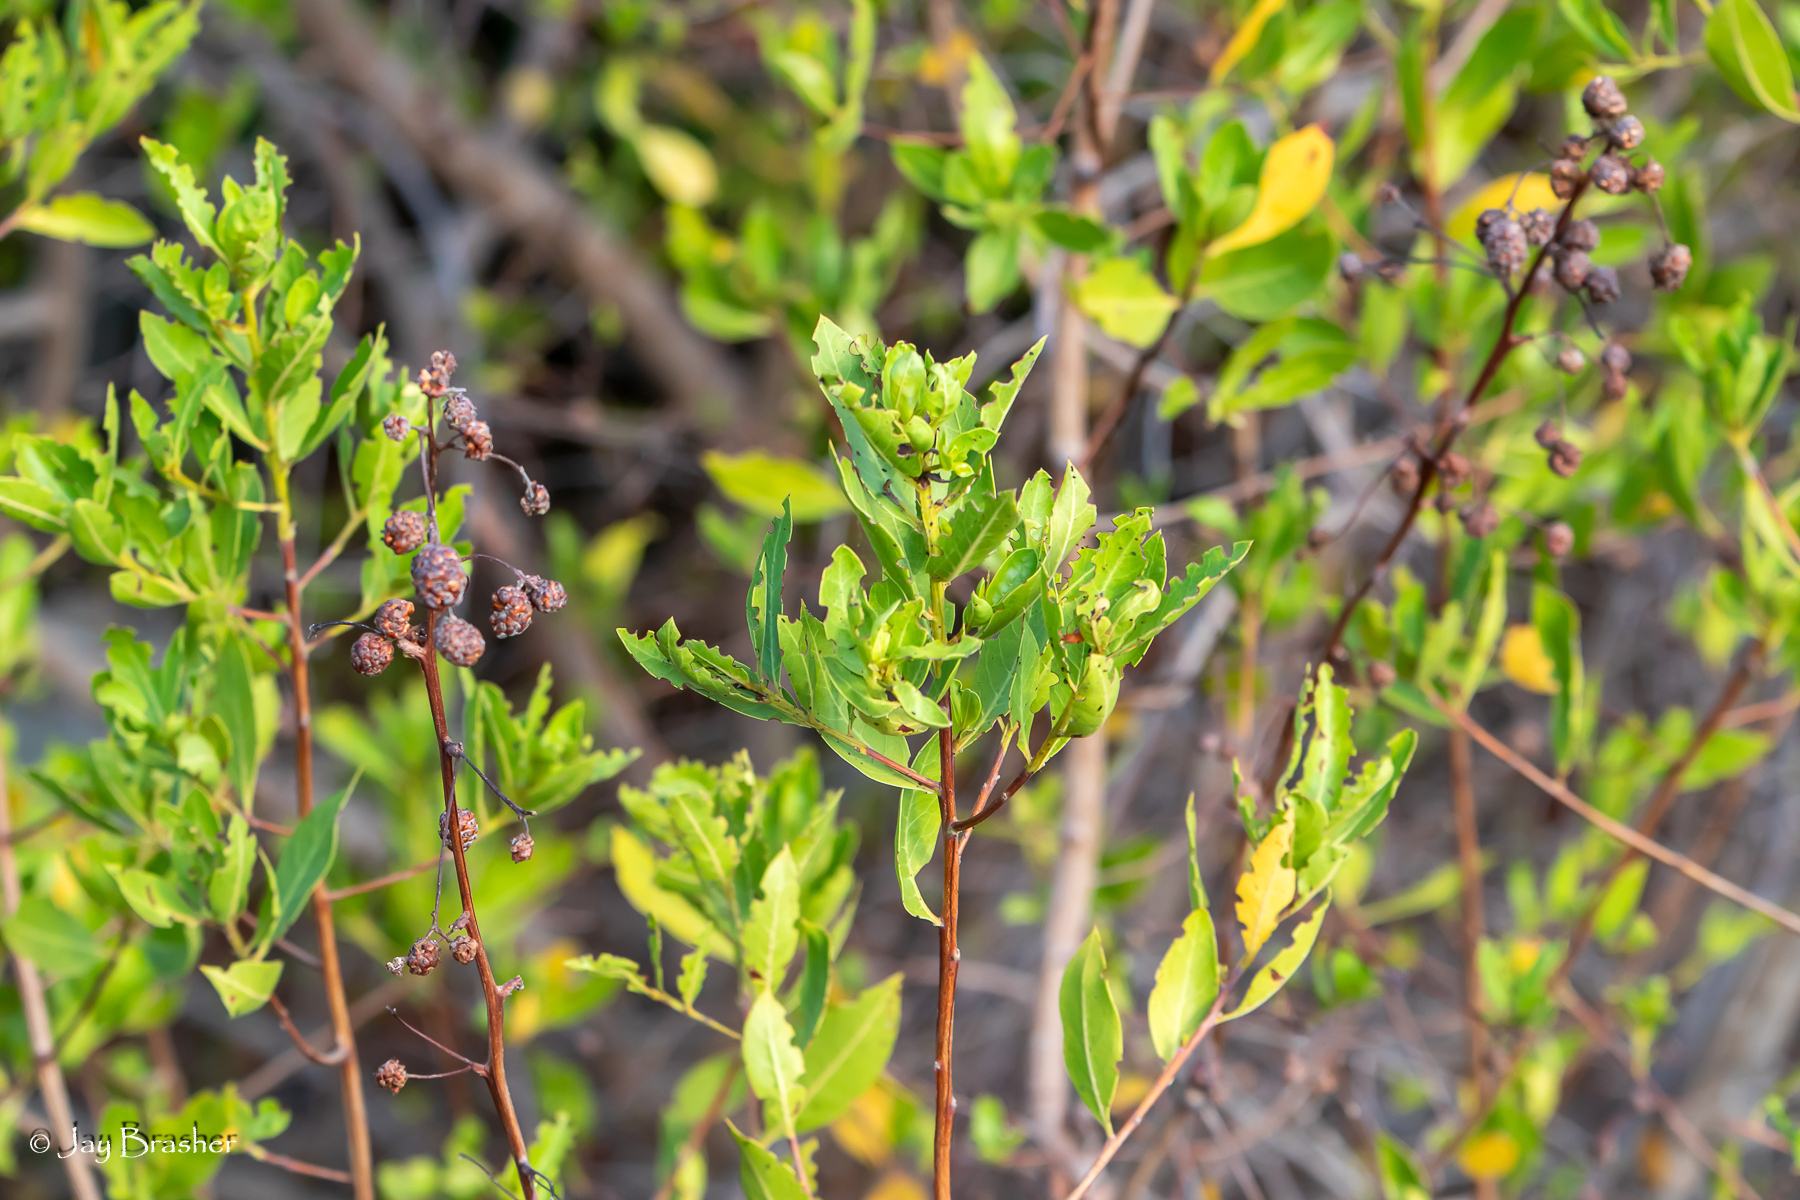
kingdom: Plantae
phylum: Tracheophyta
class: Magnoliopsida
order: Myrtales
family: Combretaceae
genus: Conocarpus
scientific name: Conocarpus erectus
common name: Button mangrove
